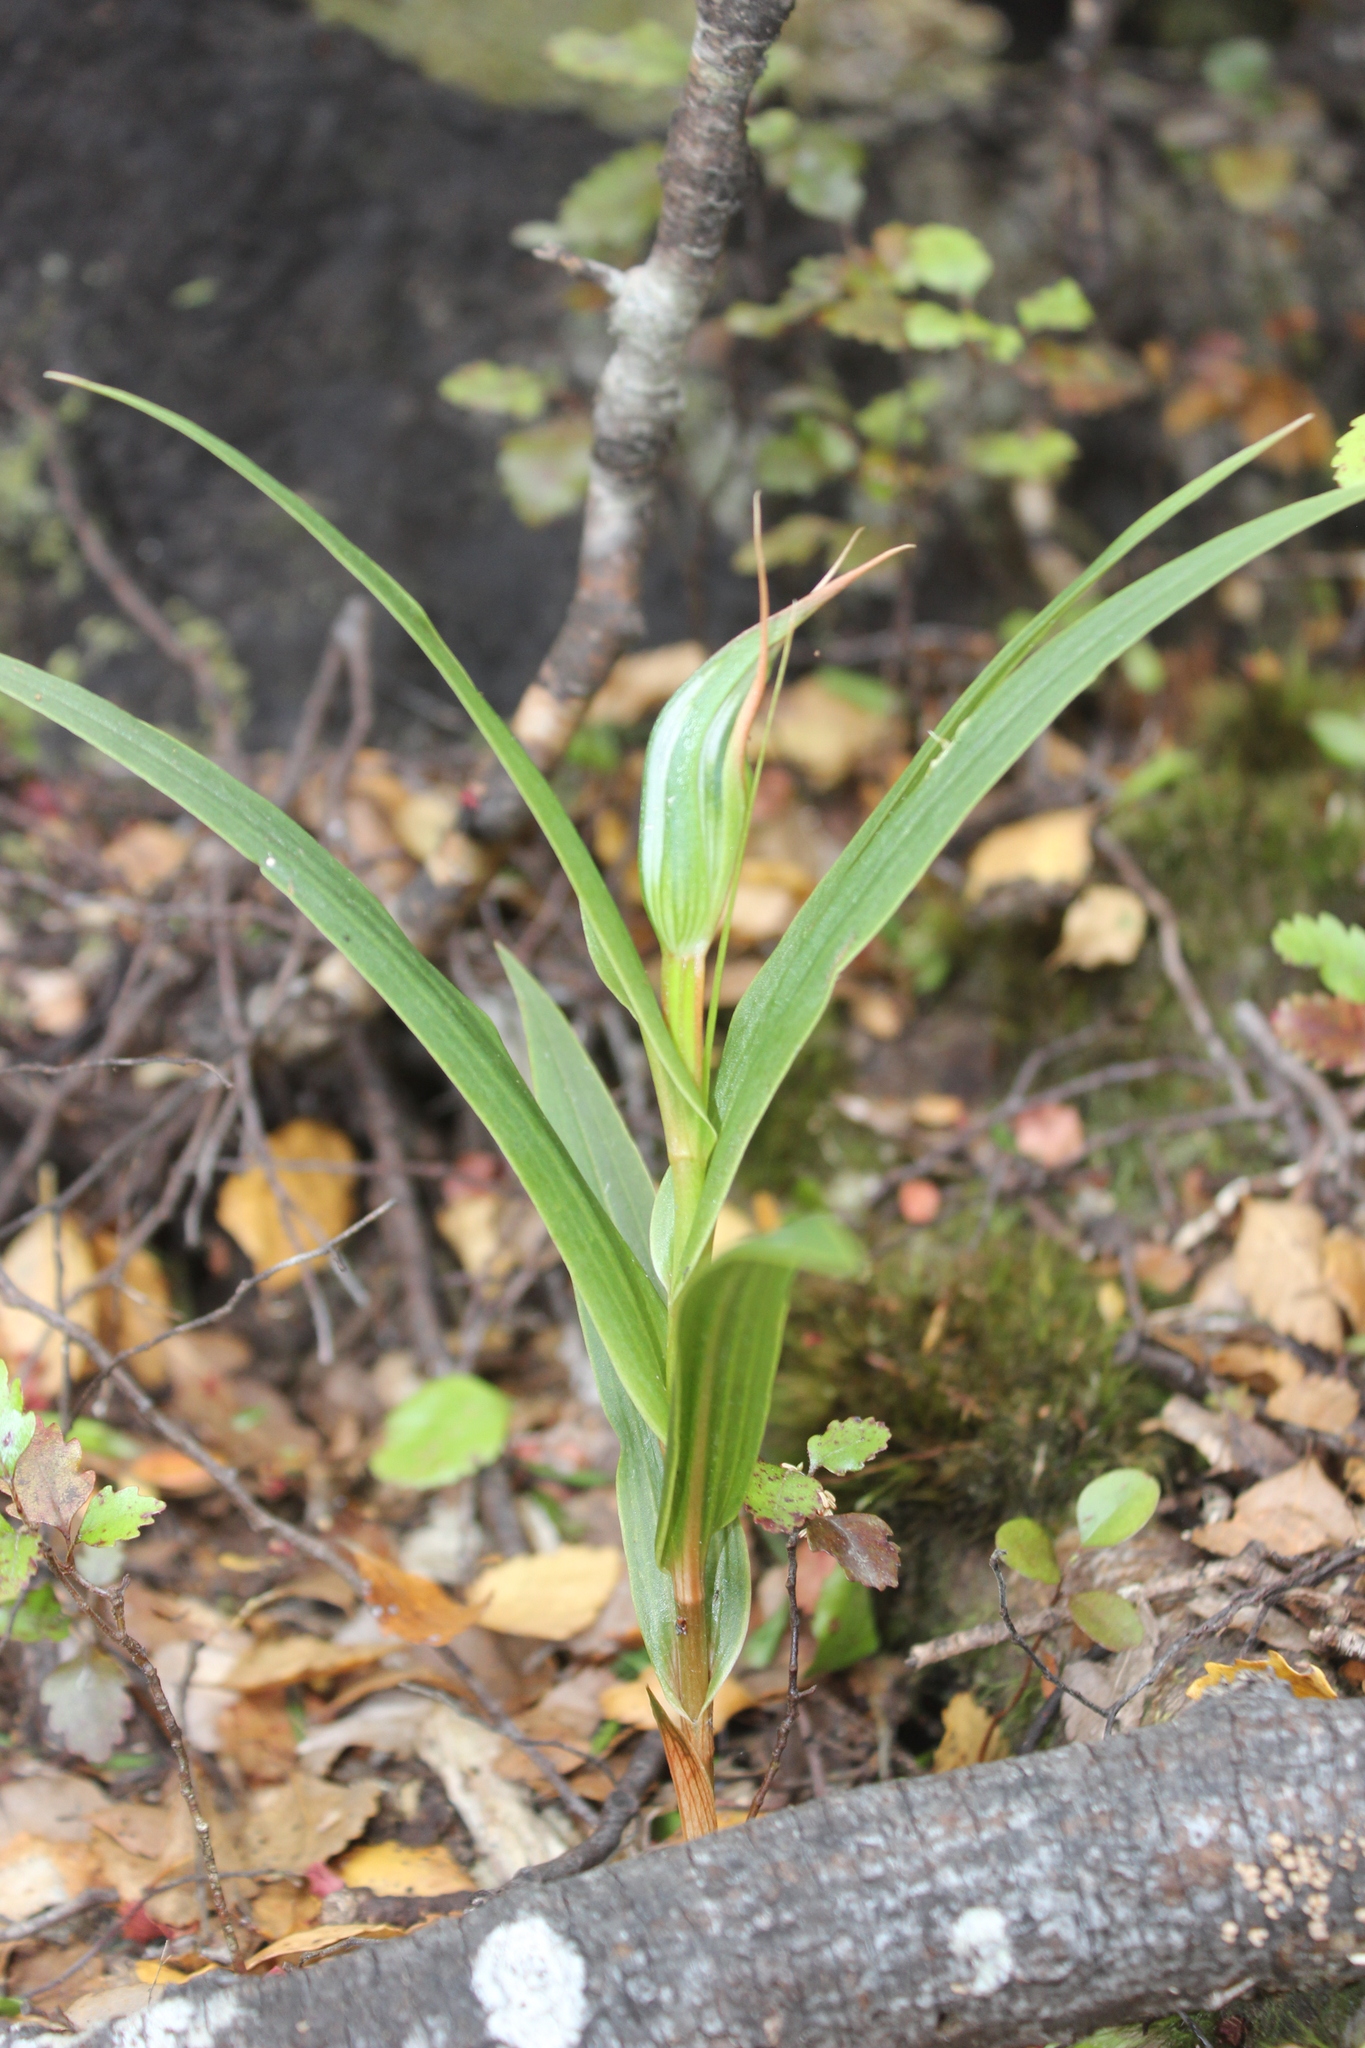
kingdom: Plantae
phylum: Tracheophyta
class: Liliopsida
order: Asparagales
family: Orchidaceae
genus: Pterostylis
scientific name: Pterostylis cardiostigma
